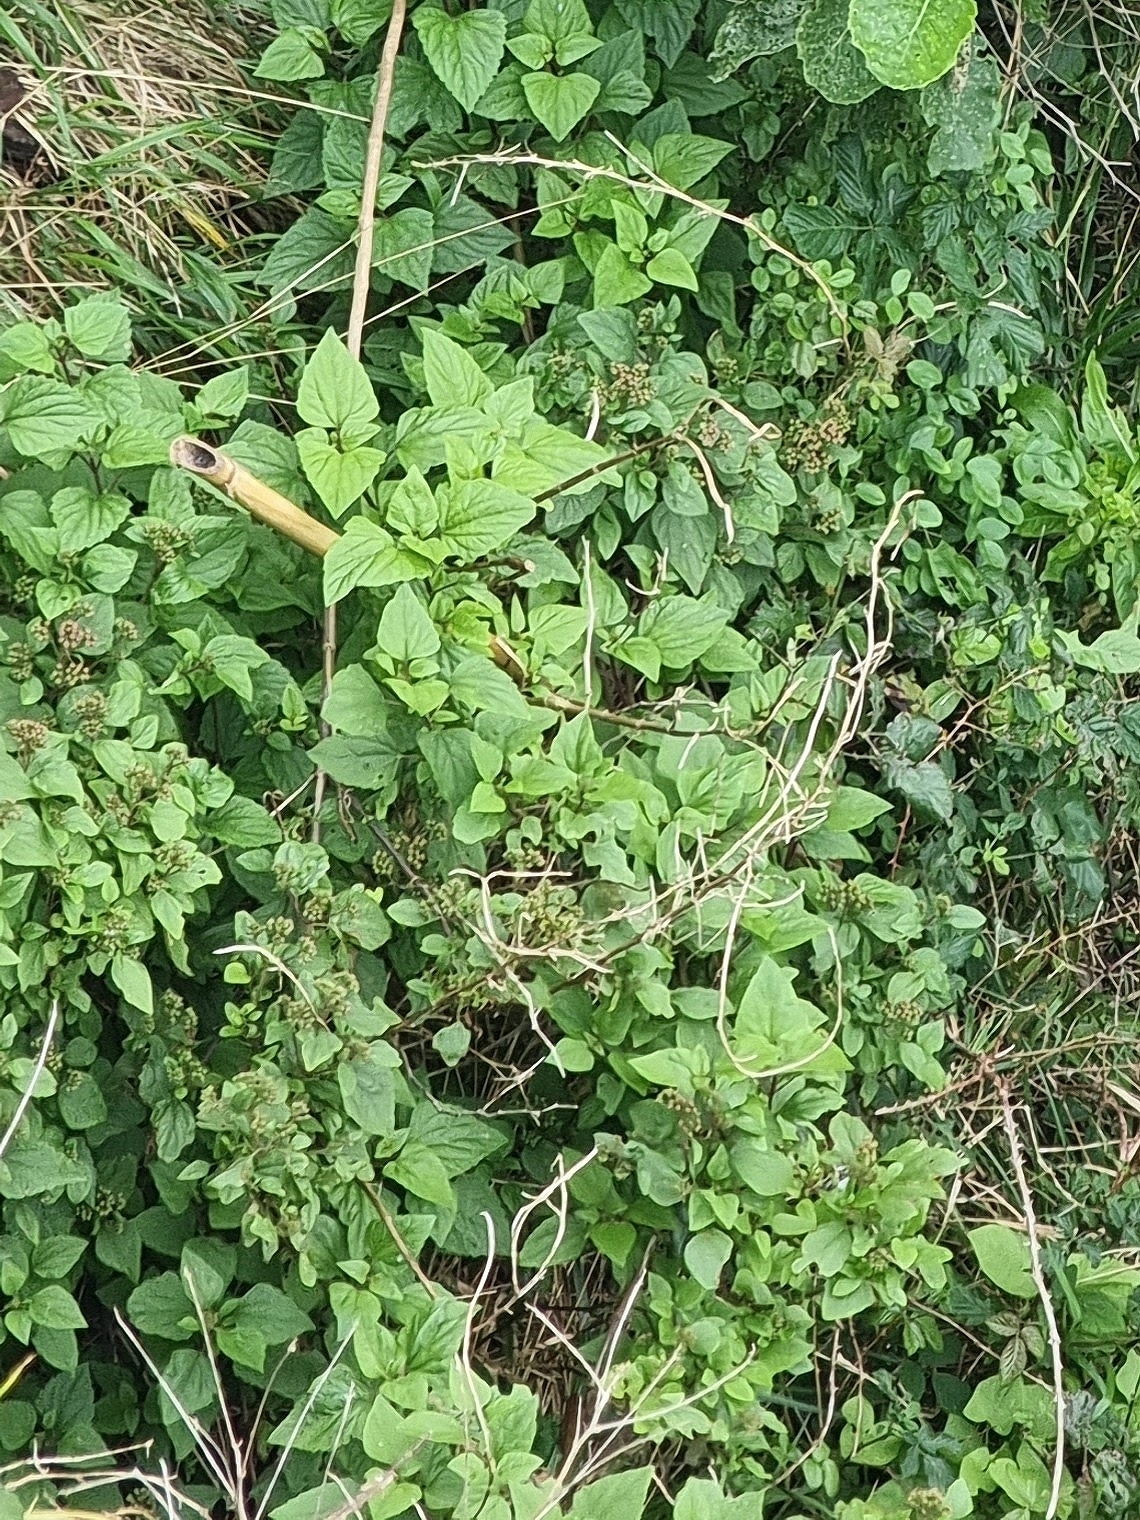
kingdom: Plantae
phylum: Tracheophyta
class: Magnoliopsida
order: Asterales
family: Asteraceae
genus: Ageratina
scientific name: Ageratina adenophora
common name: Sticky snakeroot
